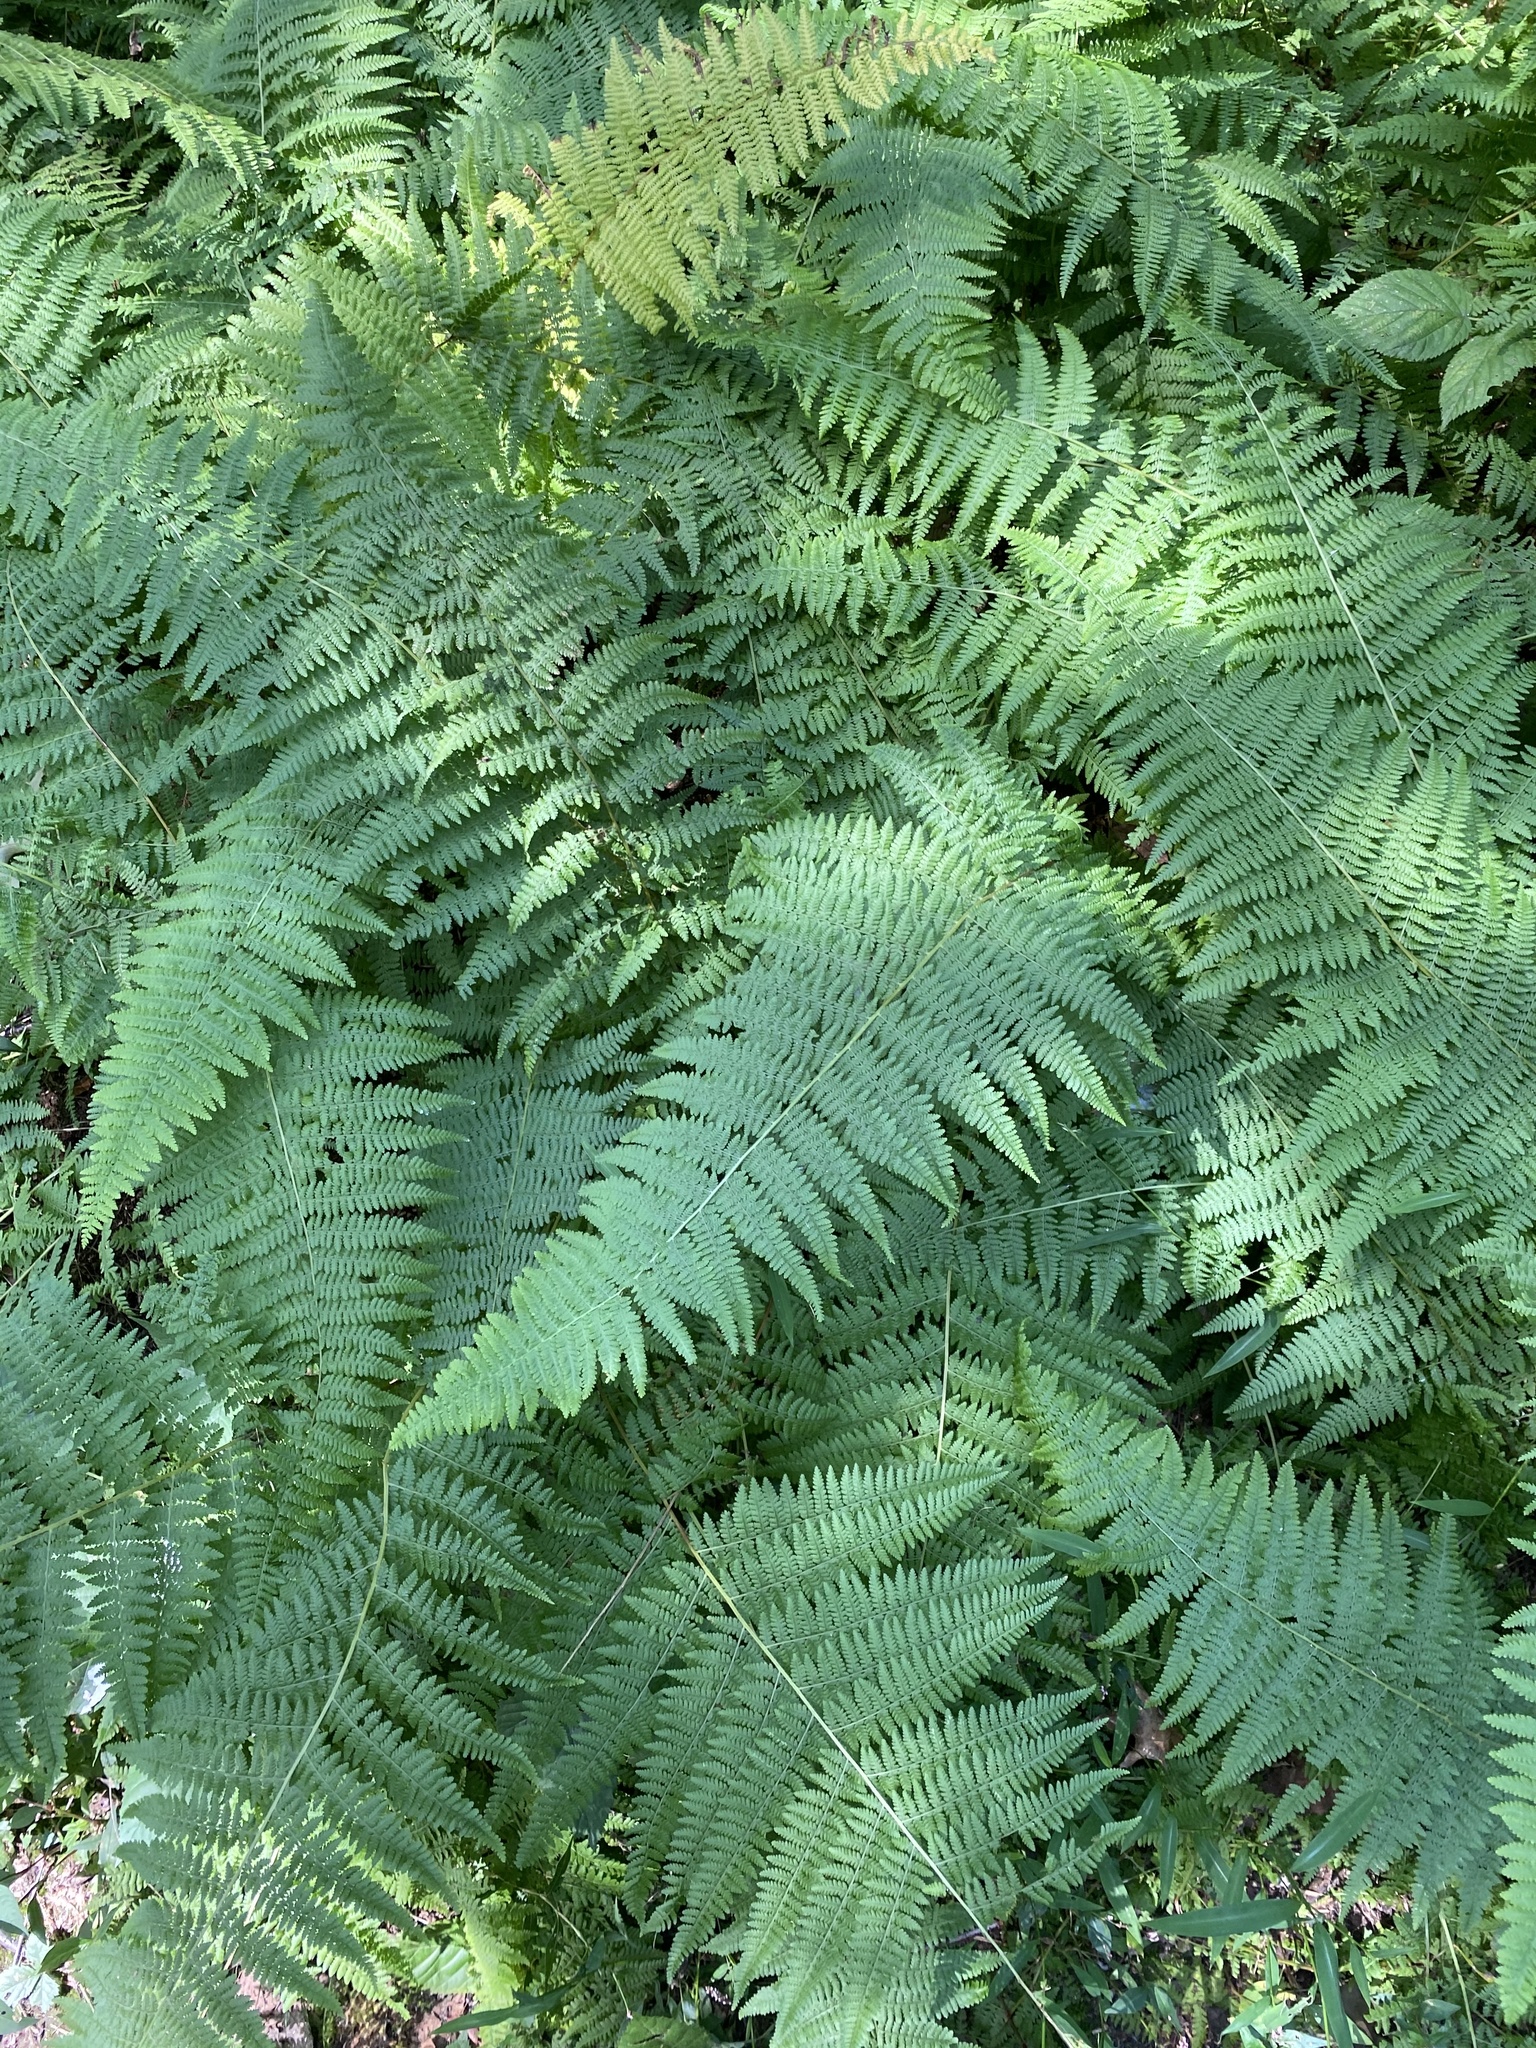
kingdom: Plantae
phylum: Tracheophyta
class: Polypodiopsida
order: Polypodiales
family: Dennstaedtiaceae
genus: Sitobolium
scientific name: Sitobolium punctilobum
